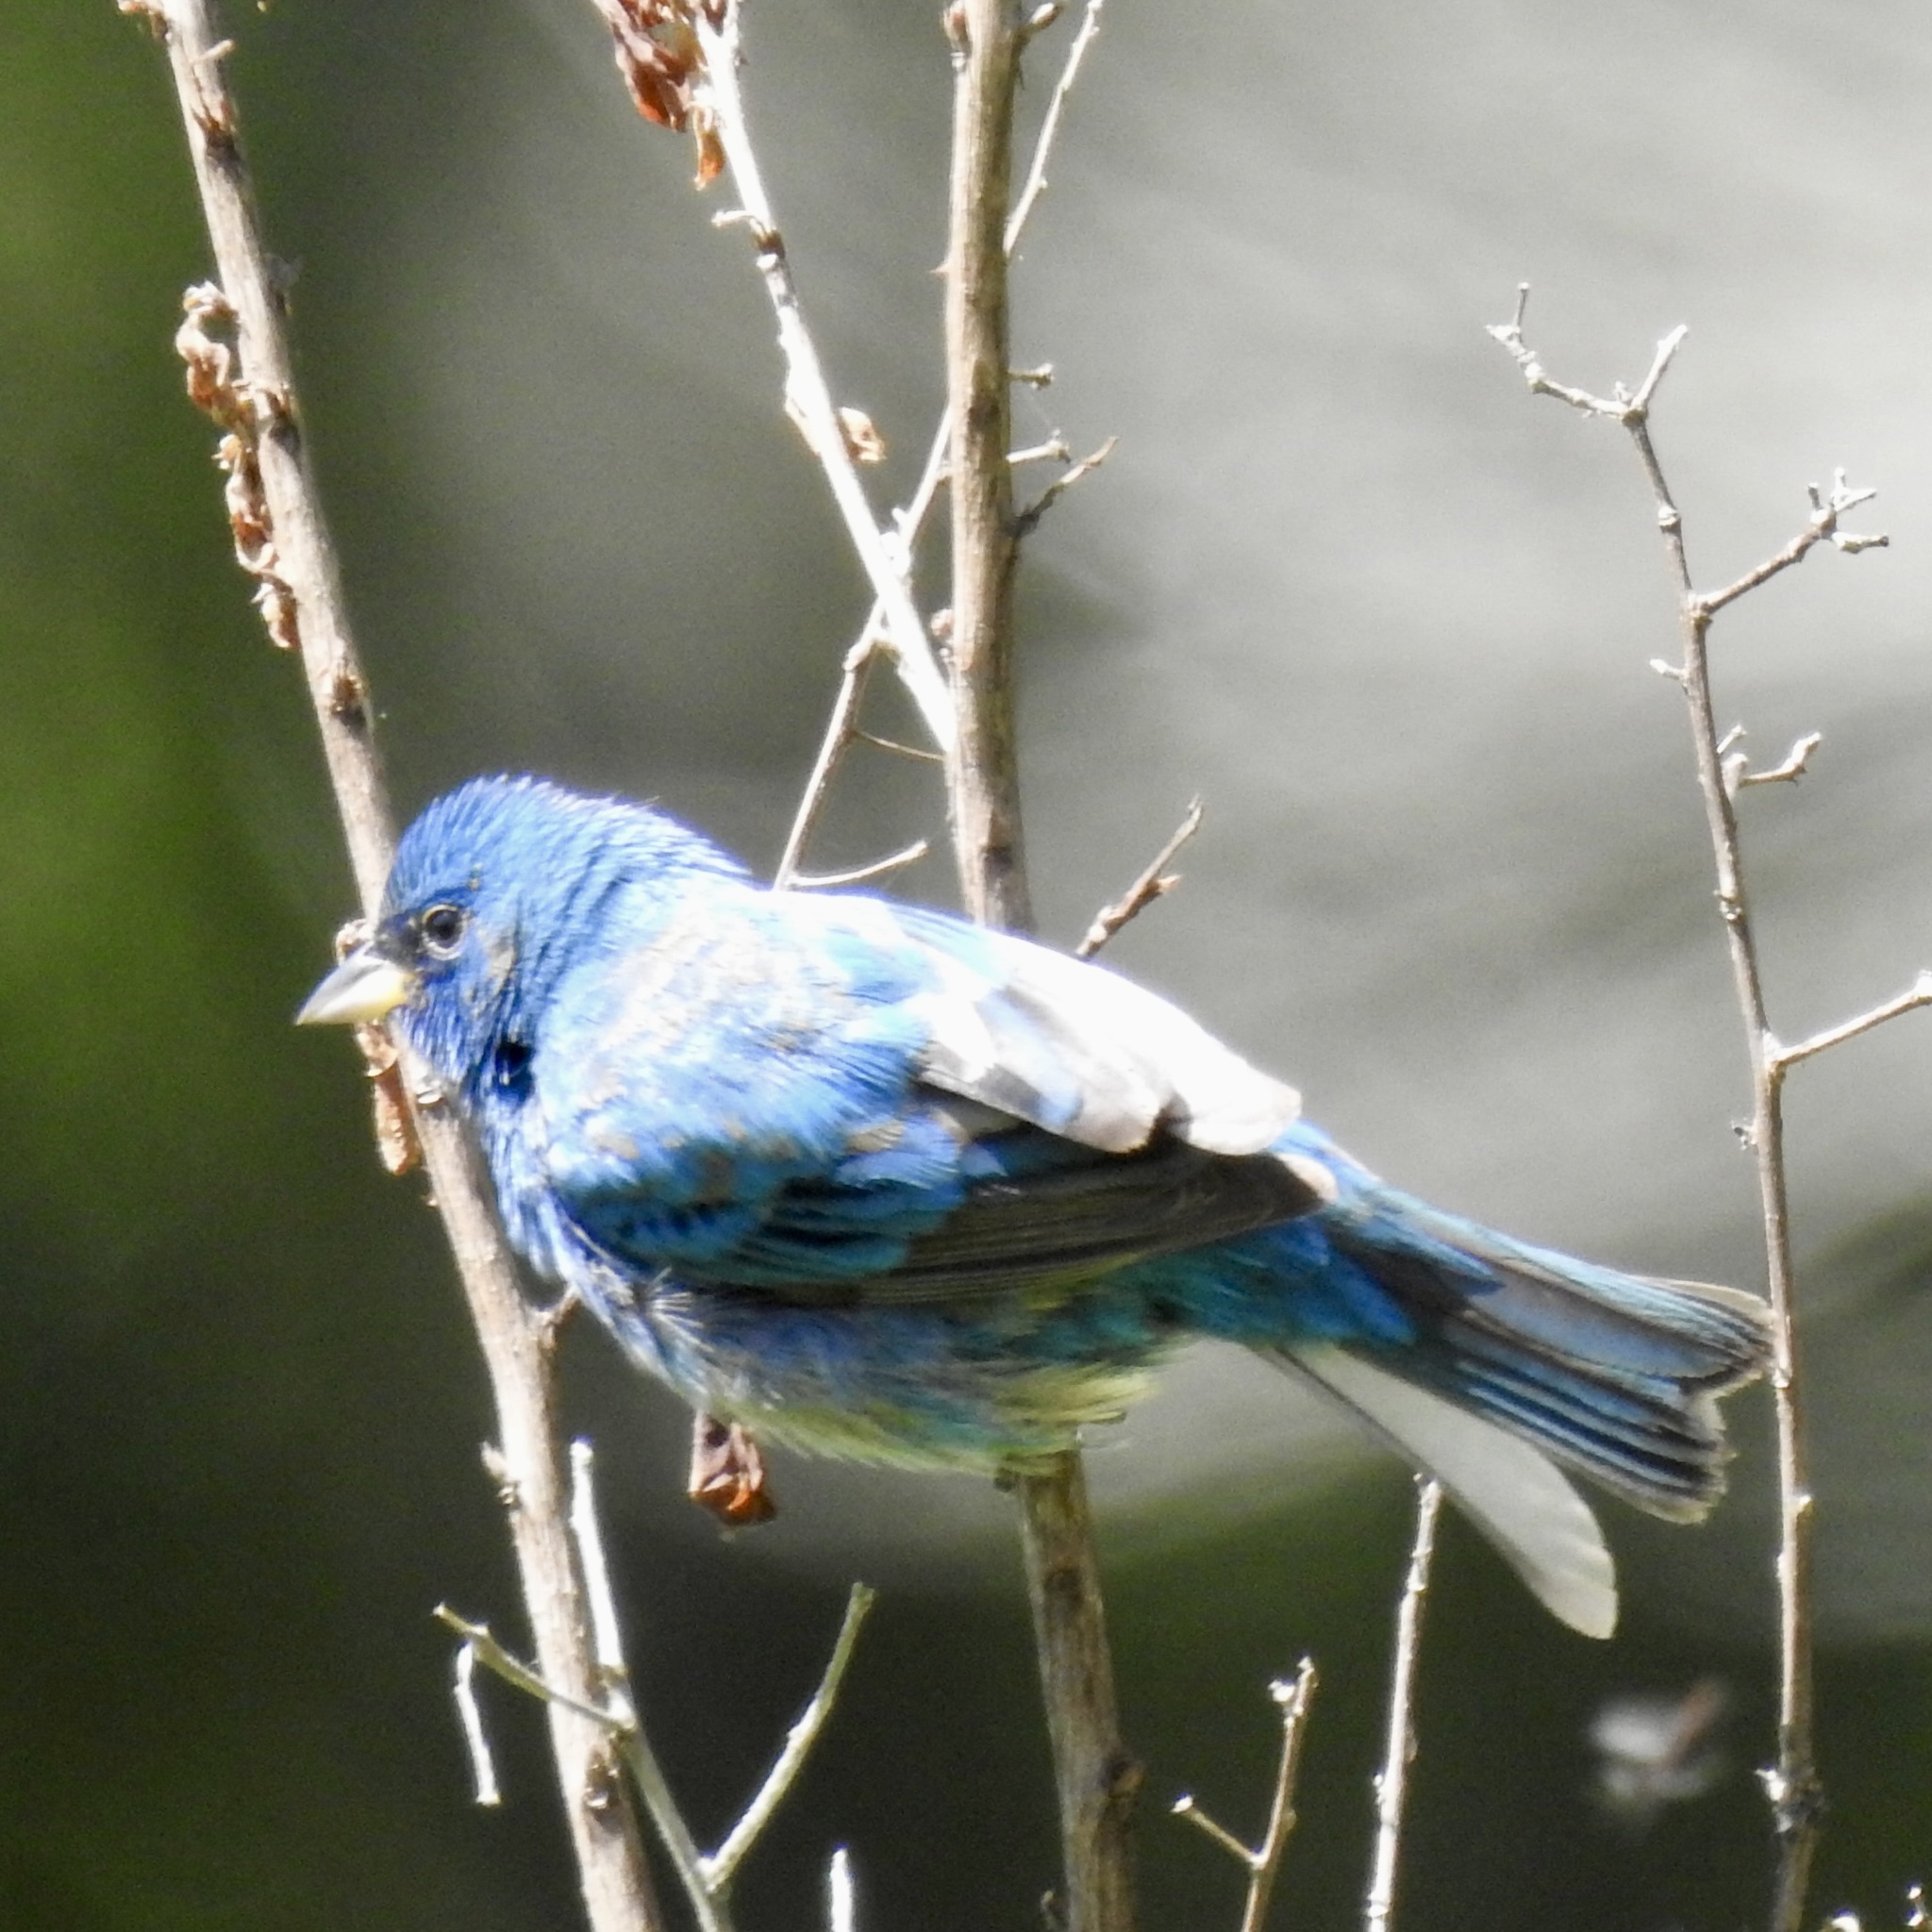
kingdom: Animalia
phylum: Chordata
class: Aves
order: Passeriformes
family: Cardinalidae
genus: Passerina
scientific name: Passerina cyanea
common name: Indigo bunting
